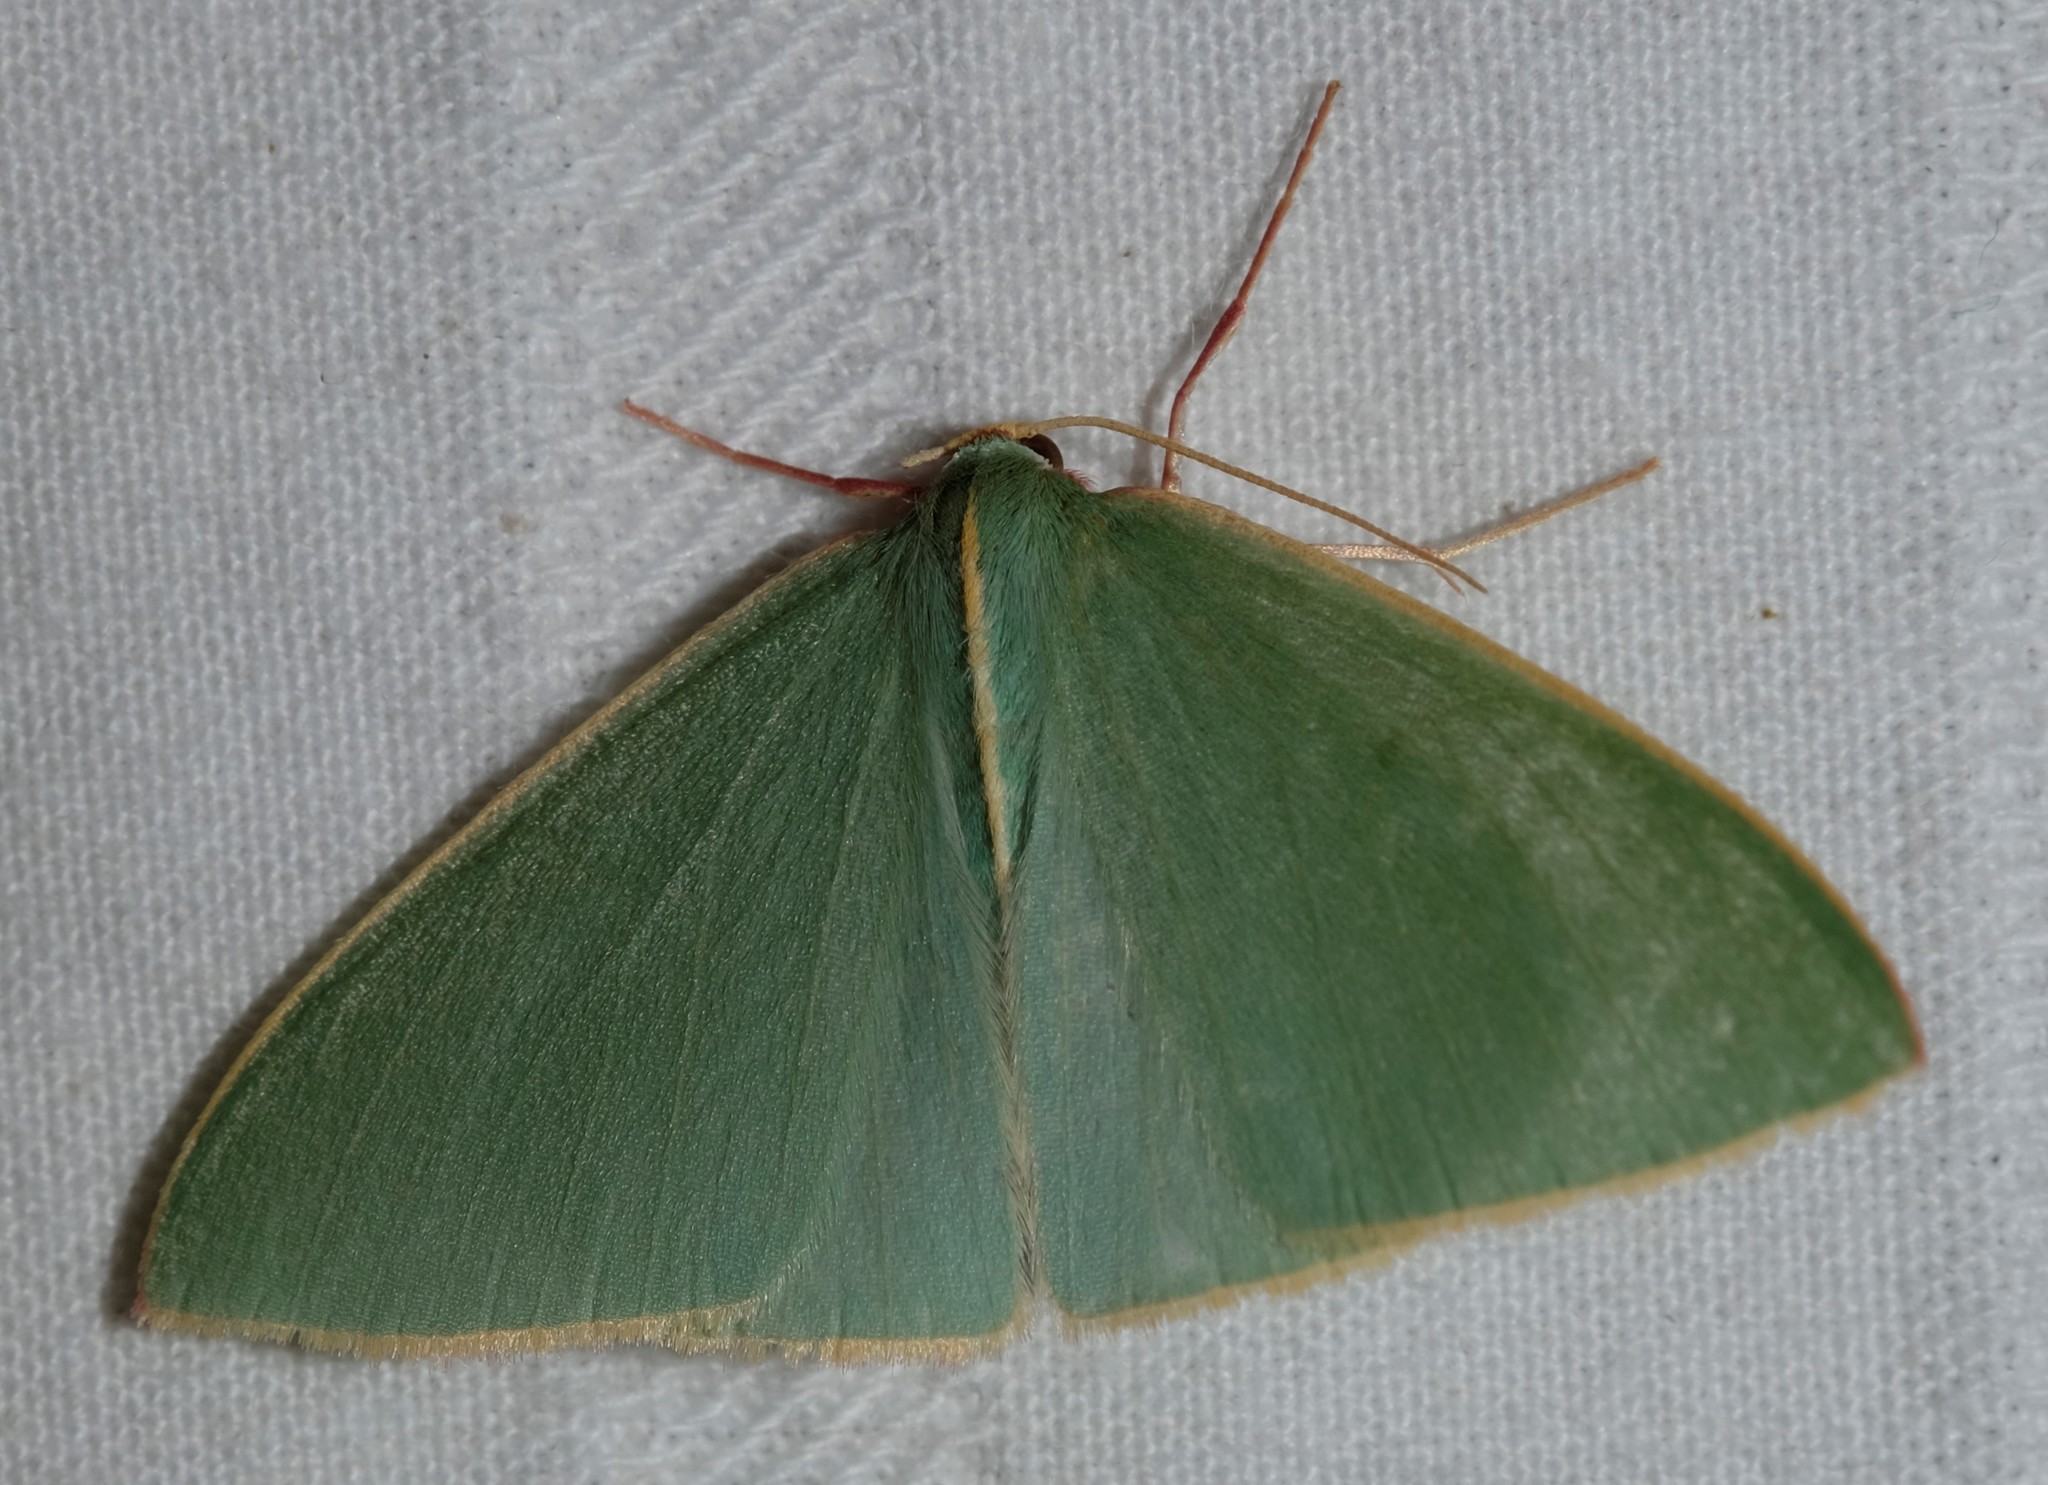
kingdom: Animalia
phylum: Arthropoda
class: Insecta
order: Lepidoptera
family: Geometridae
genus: Chlorocoma
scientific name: Chlorocoma assimilis
